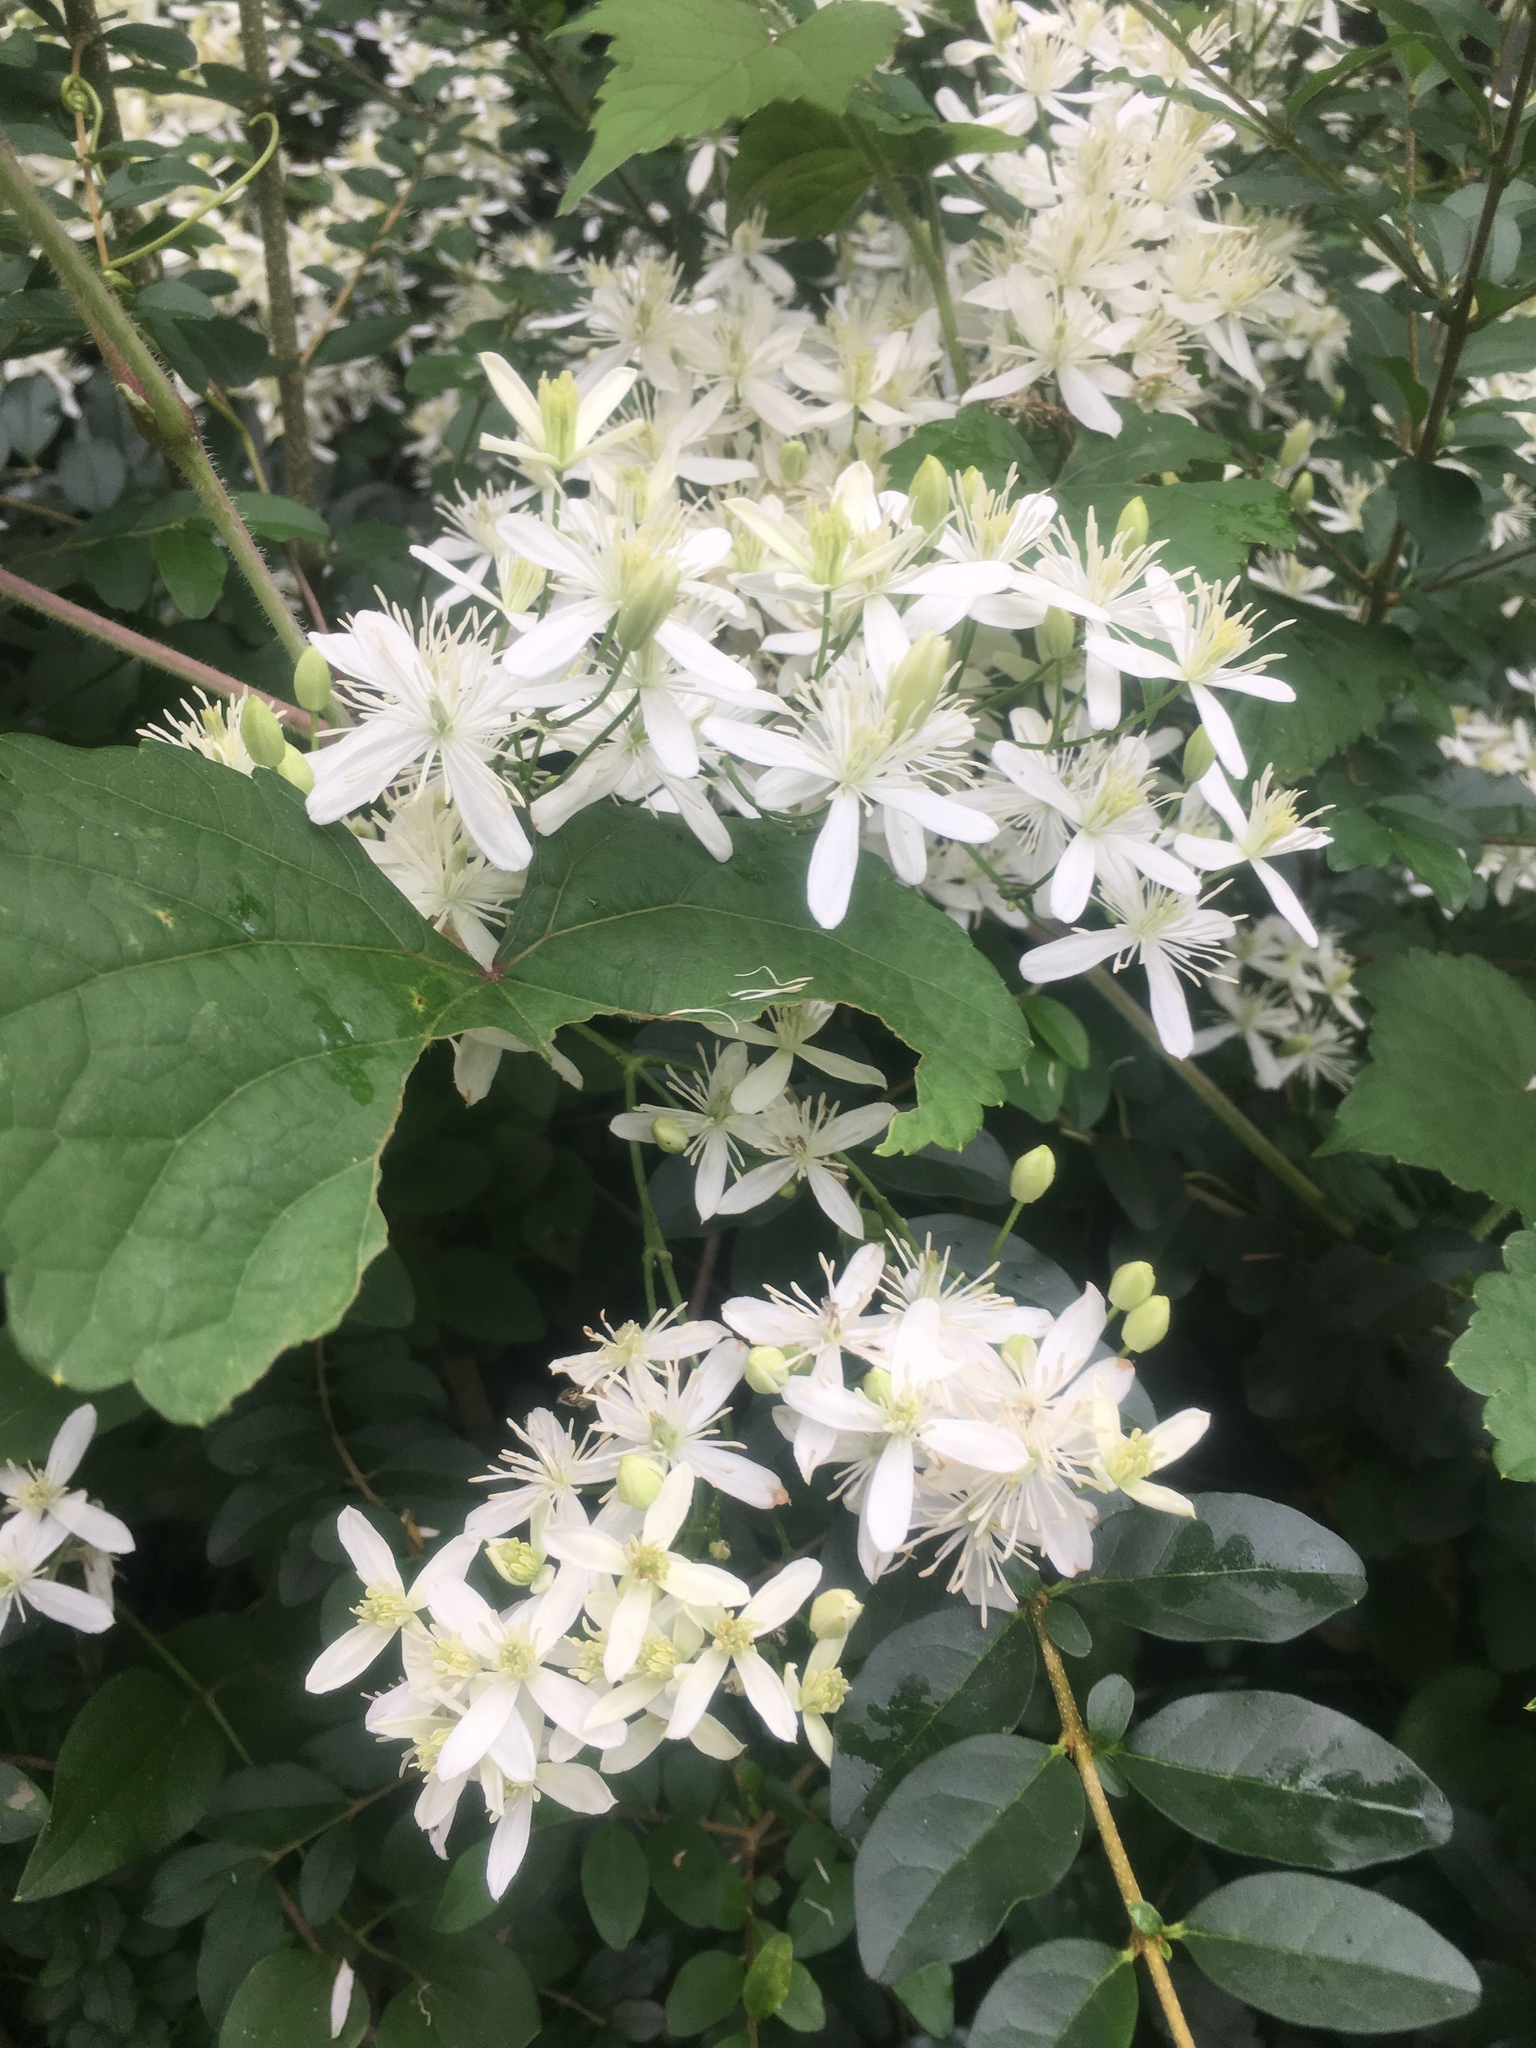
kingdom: Plantae
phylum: Tracheophyta
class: Magnoliopsida
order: Ranunculales
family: Ranunculaceae
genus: Clematis
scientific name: Clematis virginiana
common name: Virgin's-bower
